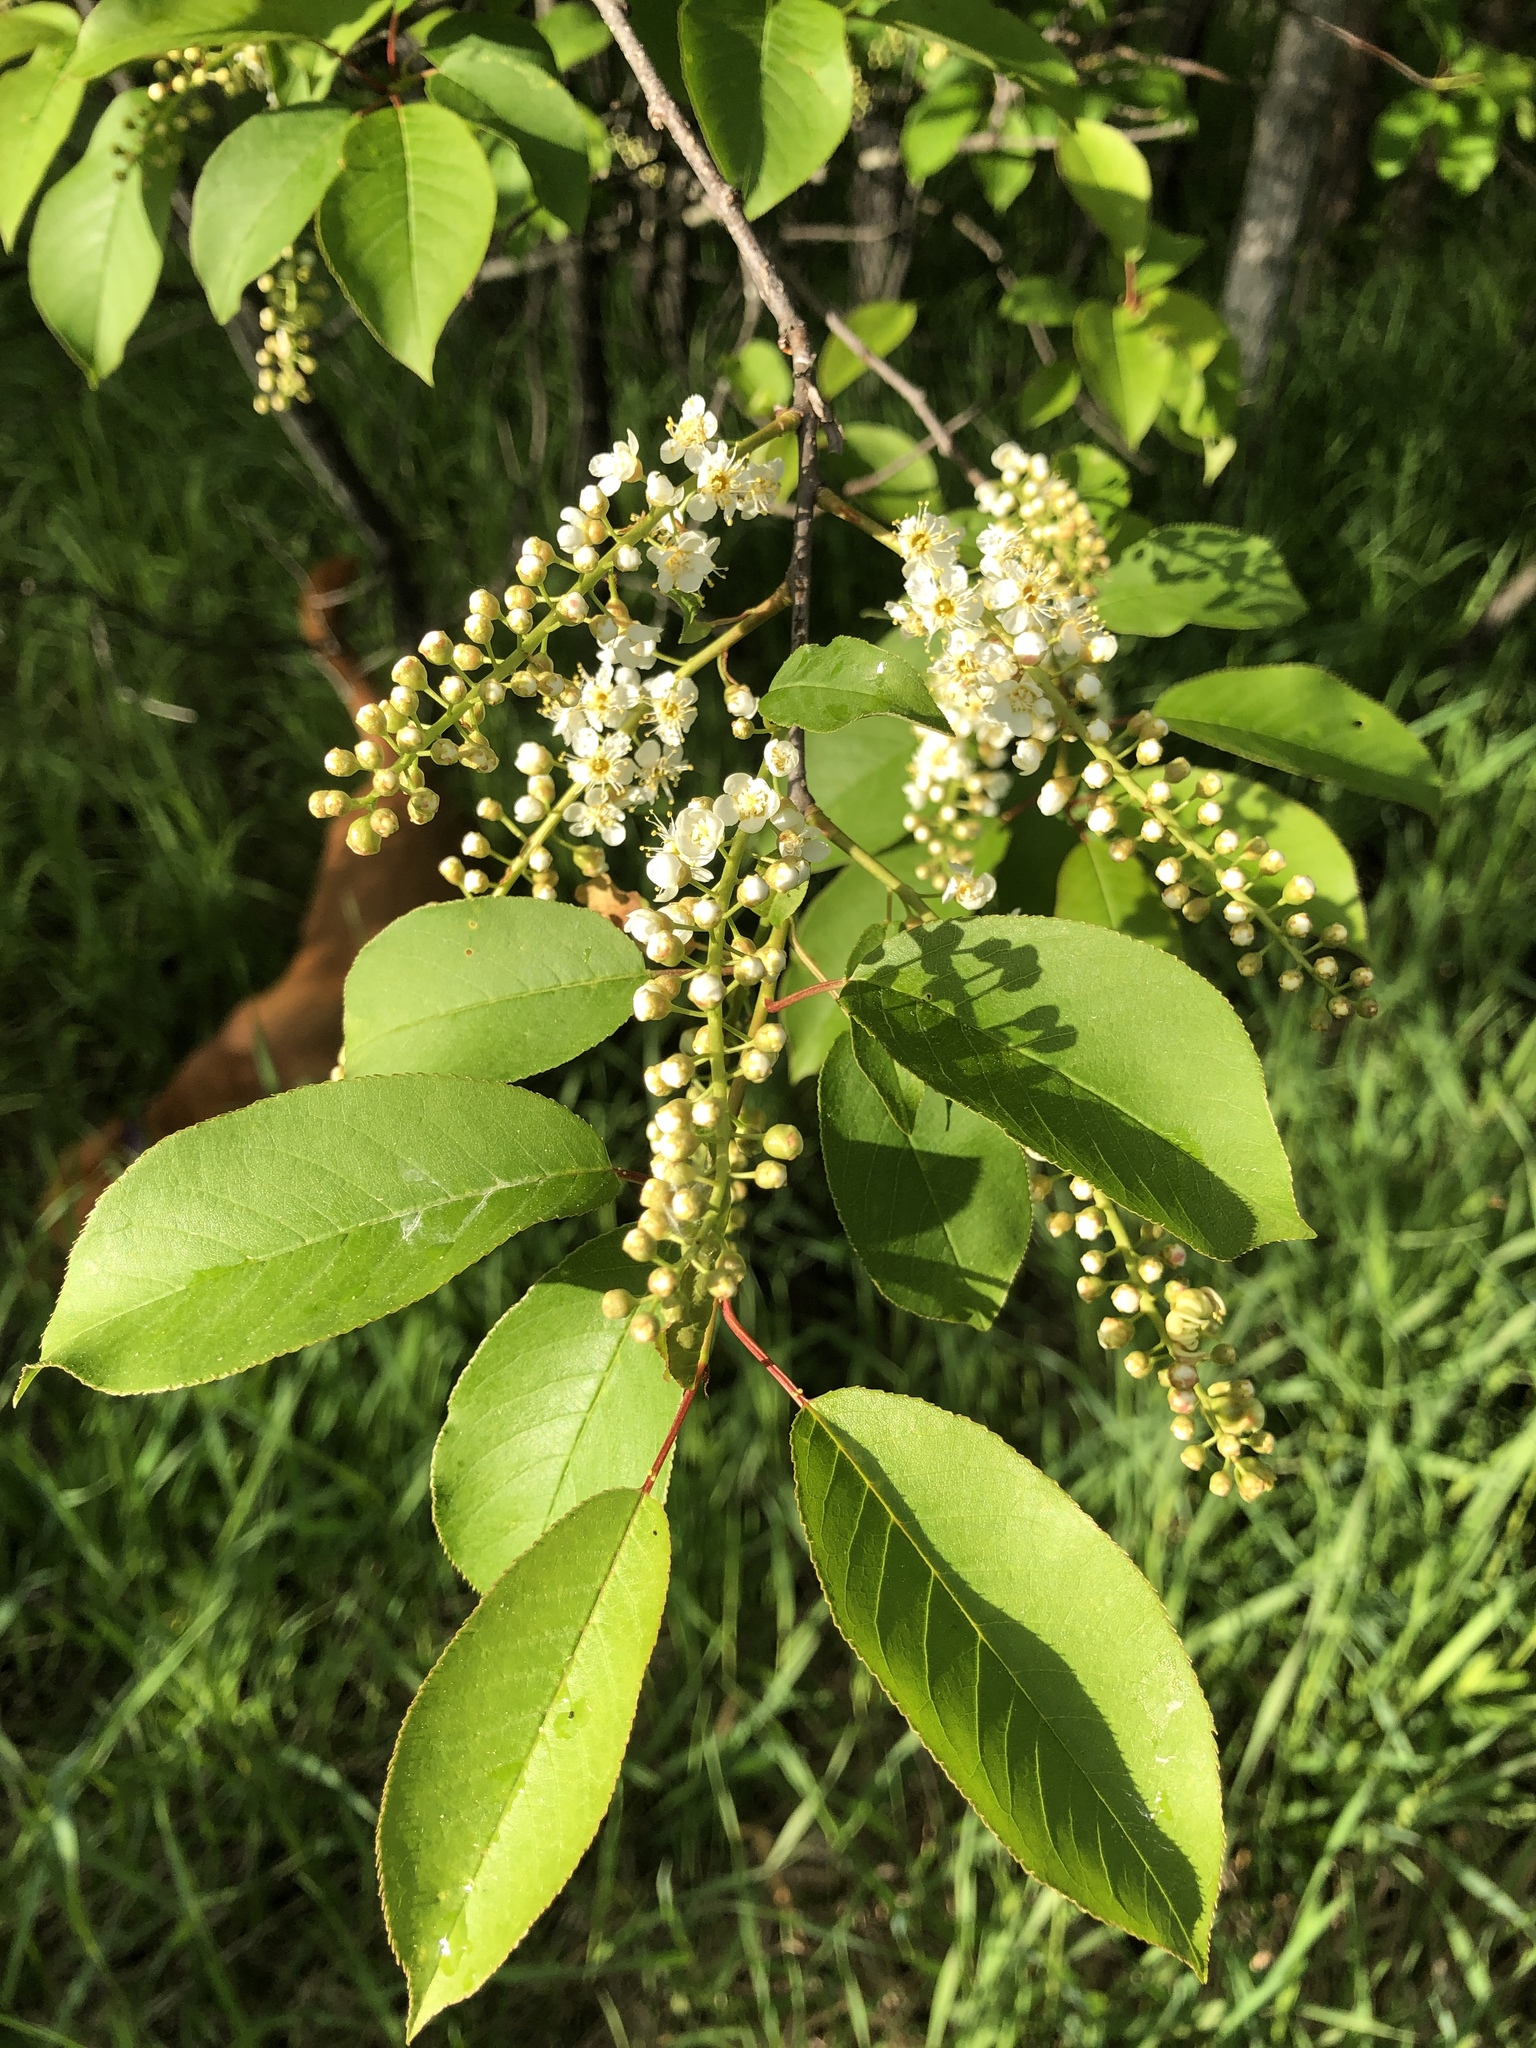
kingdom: Plantae
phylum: Tracheophyta
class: Magnoliopsida
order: Rosales
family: Rosaceae
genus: Prunus
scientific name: Prunus virginiana
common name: Chokecherry
